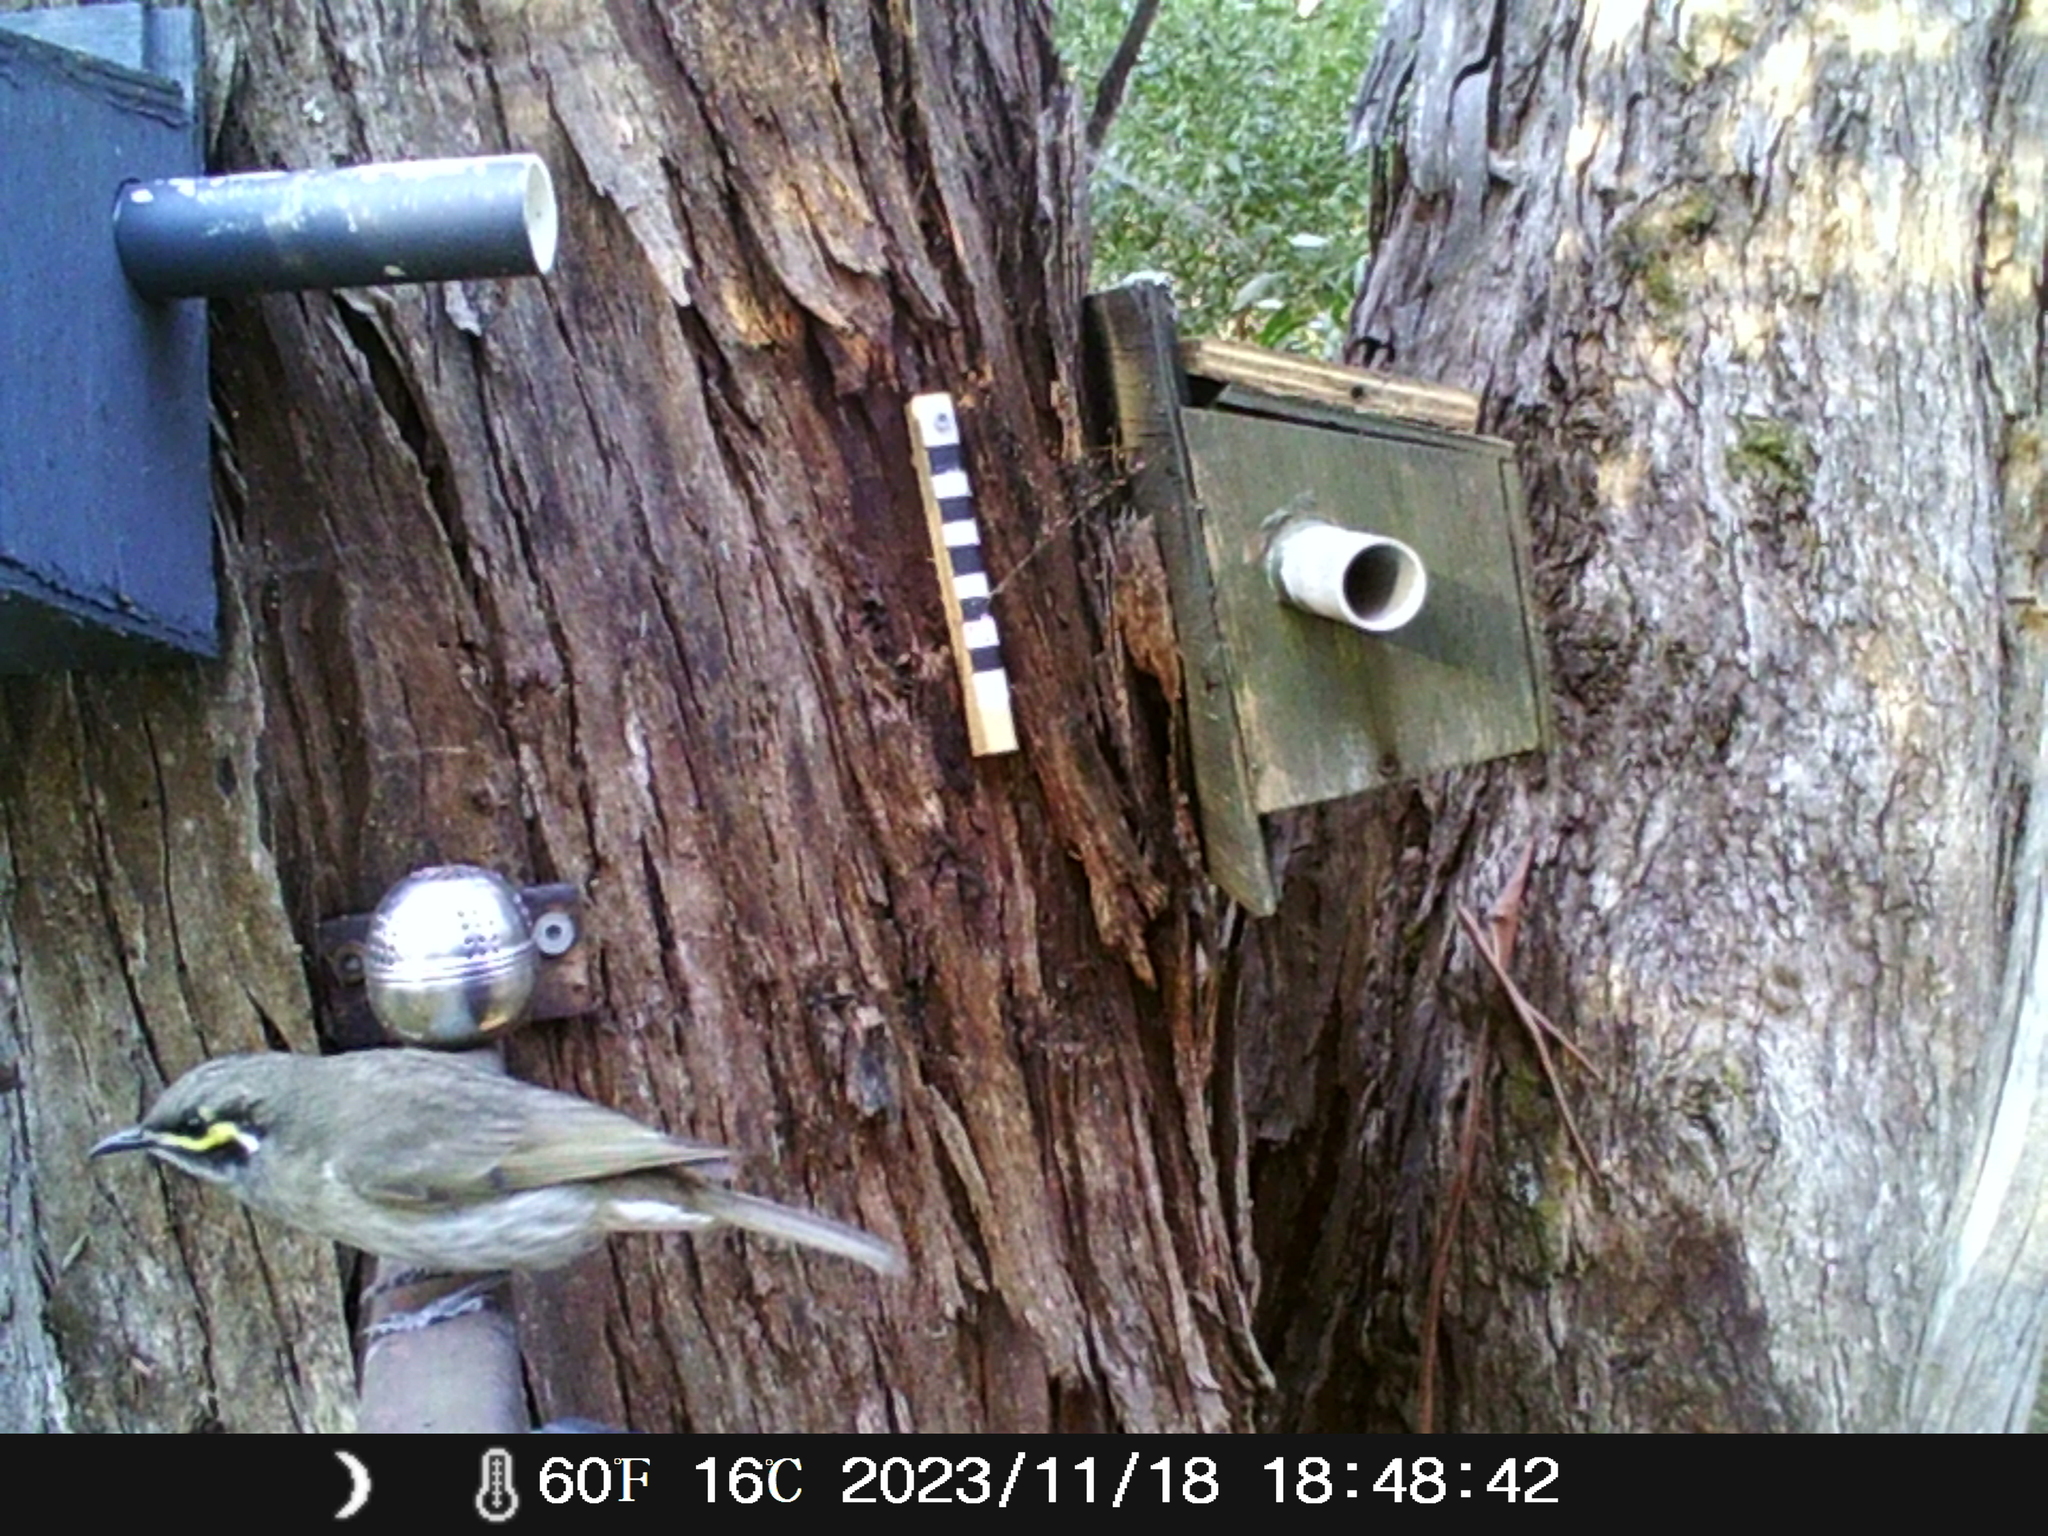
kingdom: Animalia
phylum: Chordata
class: Aves
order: Passeriformes
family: Meliphagidae
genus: Caligavis
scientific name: Caligavis chrysops
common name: Yellow-faced honeyeater
